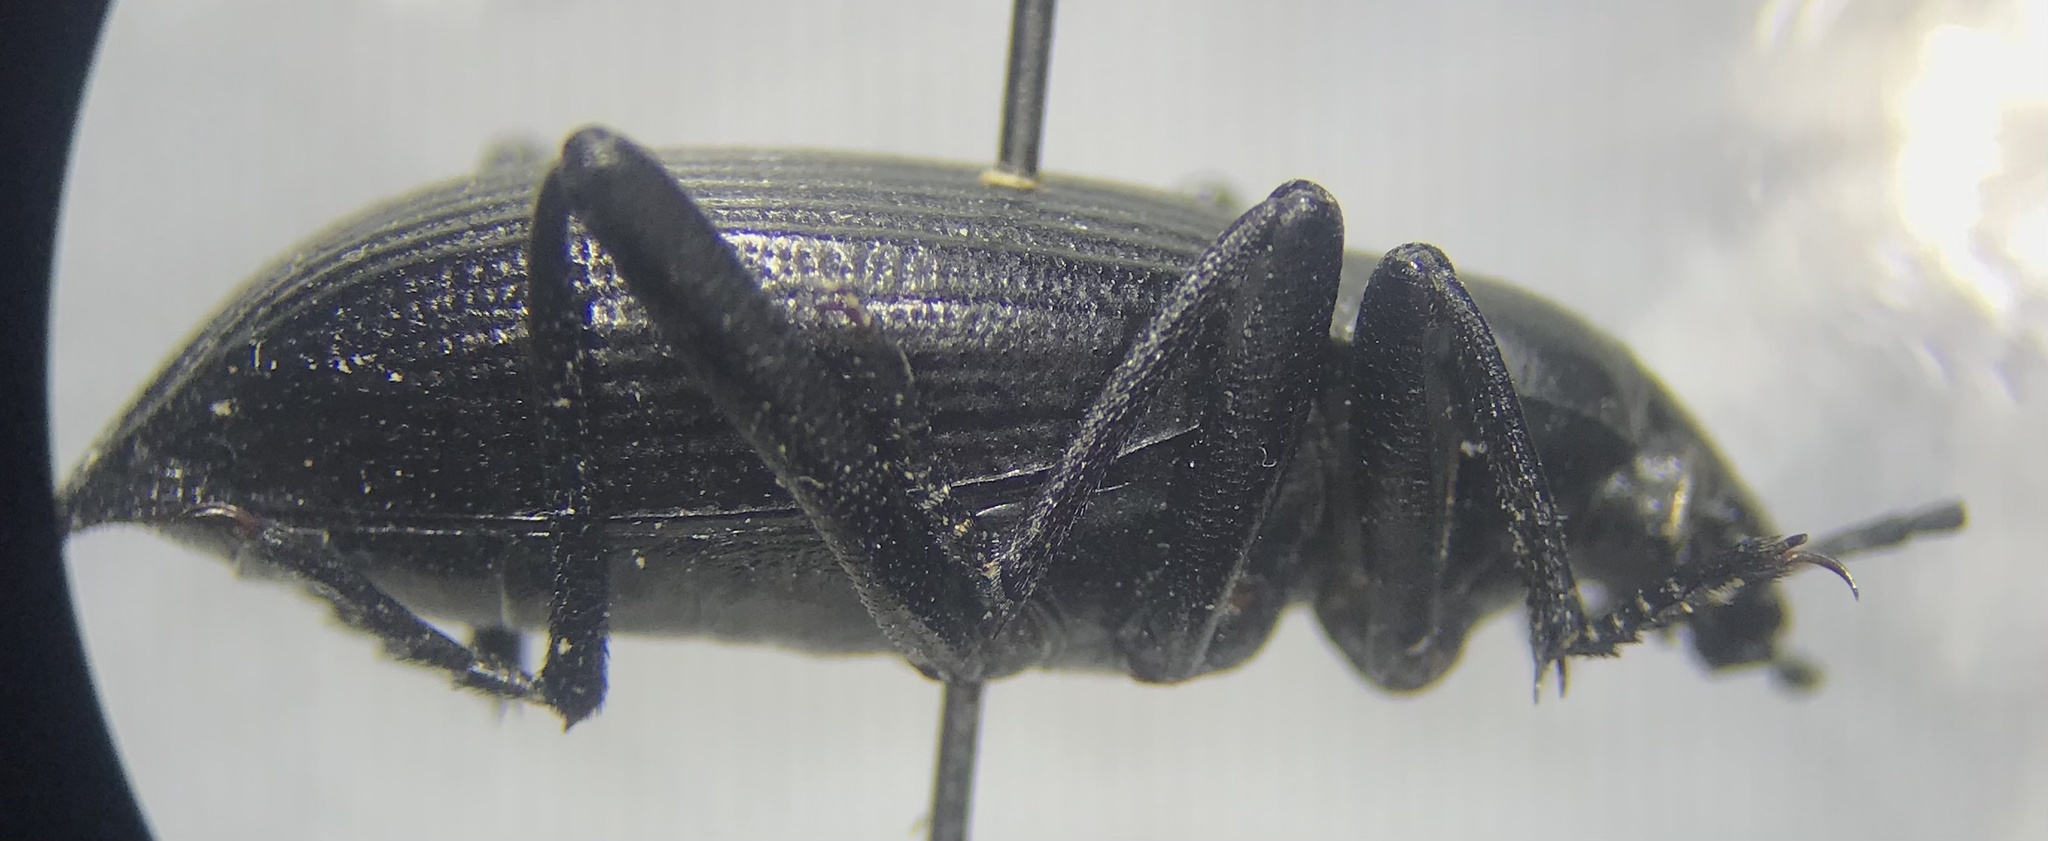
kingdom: Animalia
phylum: Arthropoda
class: Insecta
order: Coleoptera
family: Tenebrionidae
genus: Eleodes
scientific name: Eleodes hispilabris
